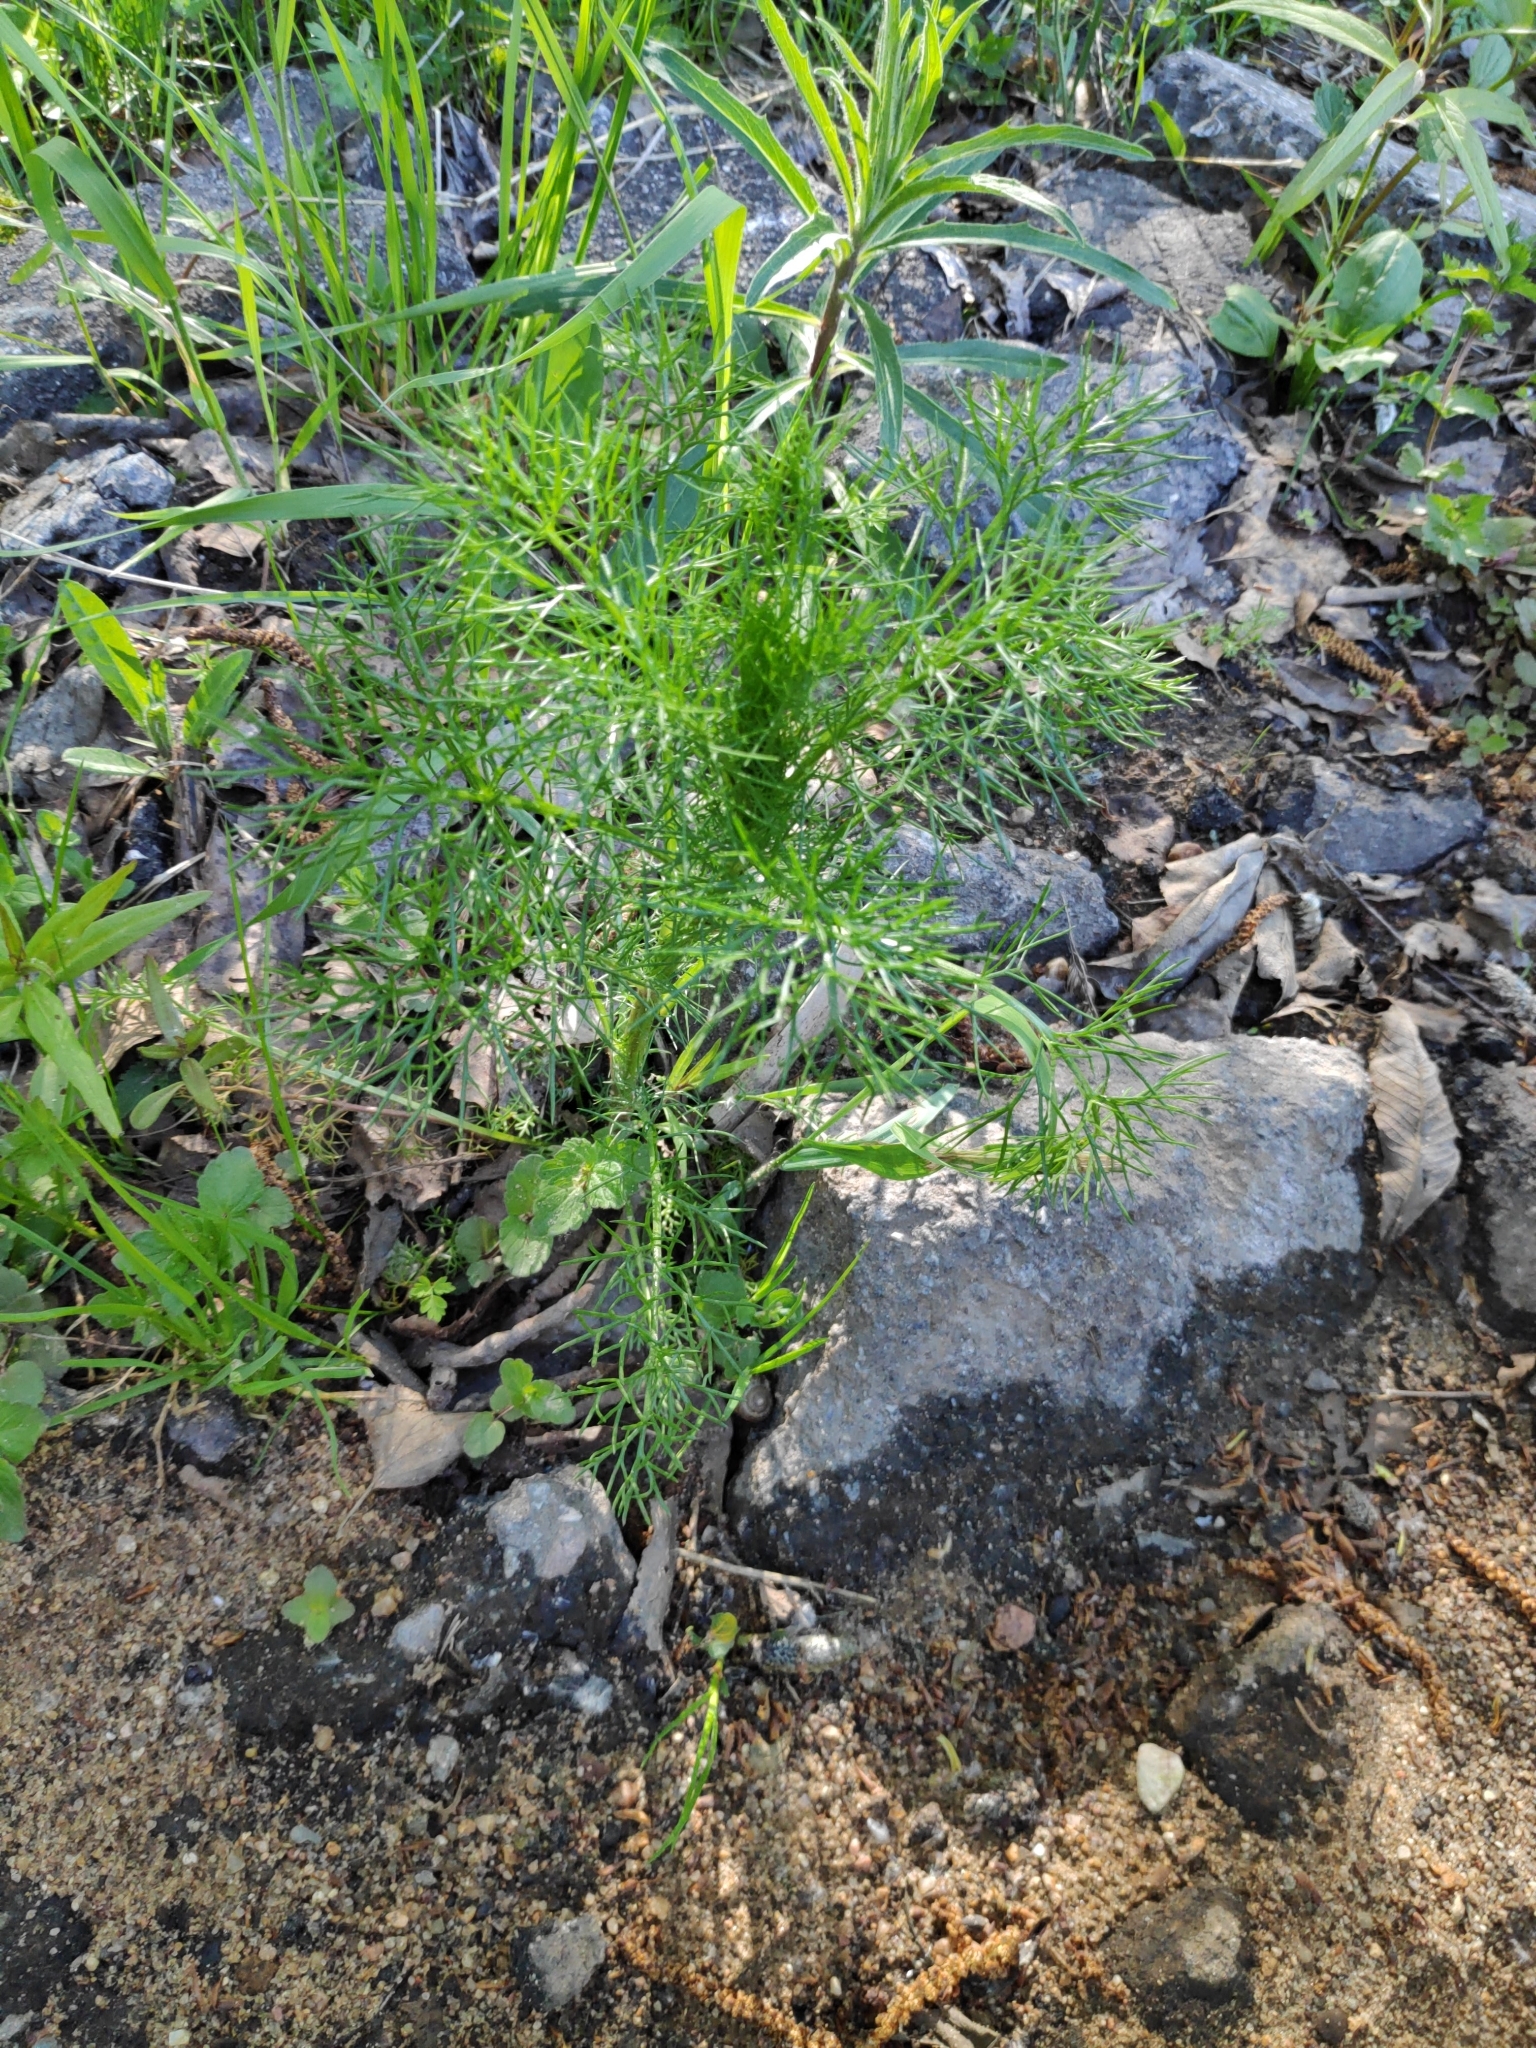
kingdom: Plantae
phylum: Tracheophyta
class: Magnoliopsida
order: Asterales
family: Asteraceae
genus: Tripleurospermum
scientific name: Tripleurospermum inodorum
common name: Scentless mayweed
